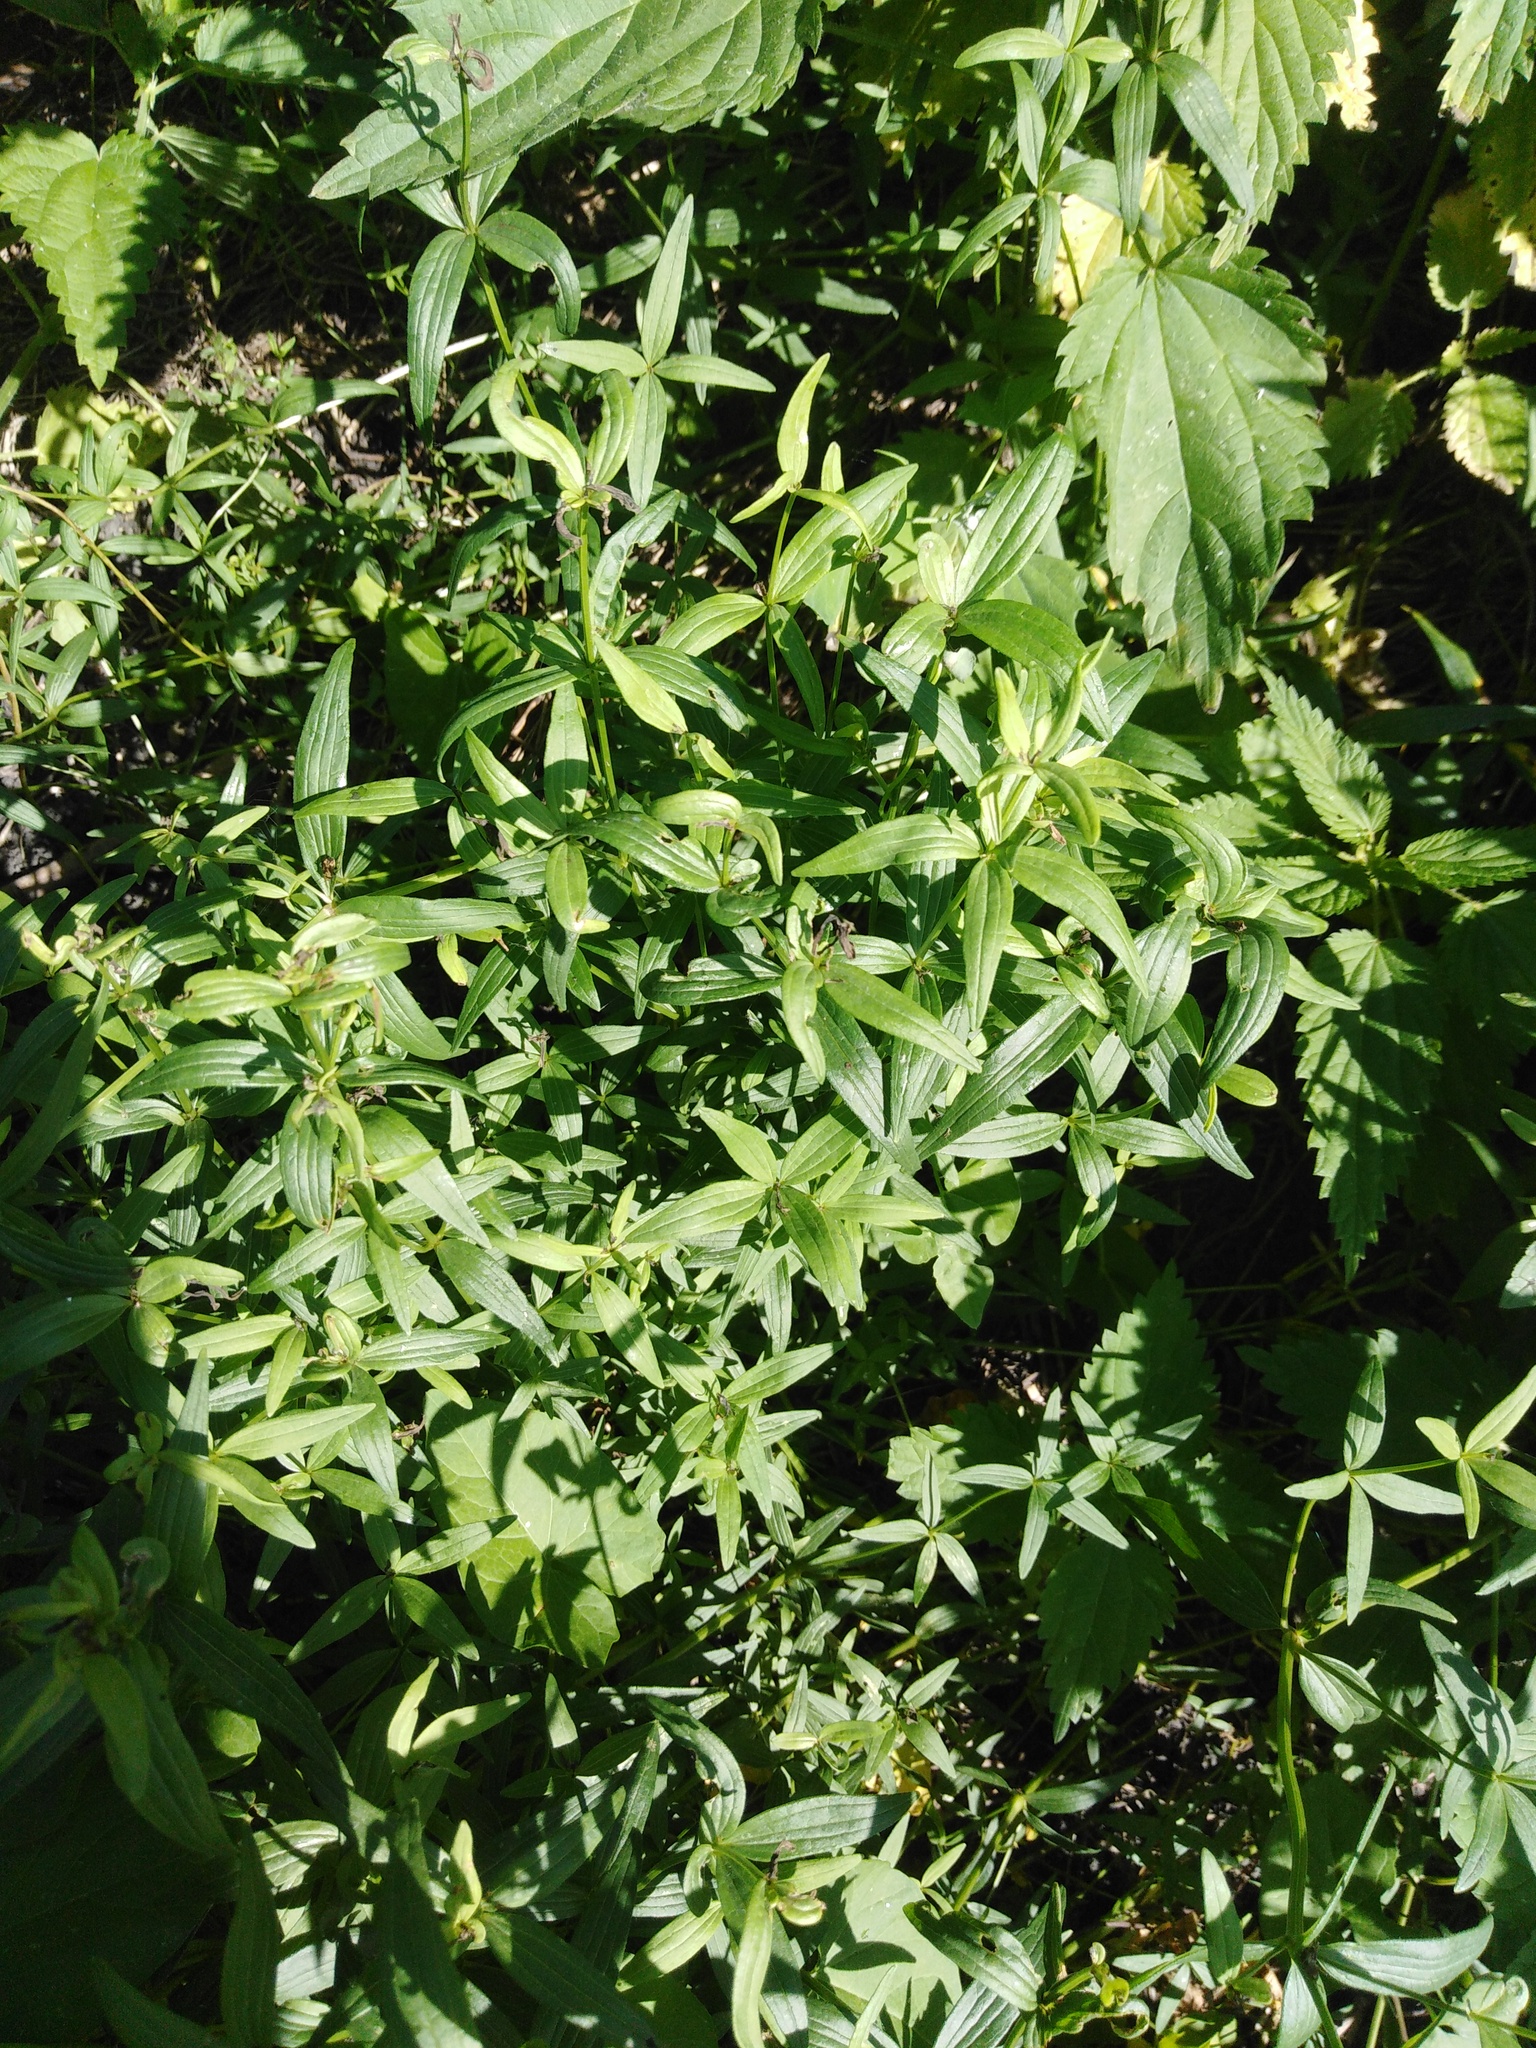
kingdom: Plantae
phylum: Tracheophyta
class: Magnoliopsida
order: Gentianales
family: Rubiaceae
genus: Galium
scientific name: Galium boreale
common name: Northern bedstraw
